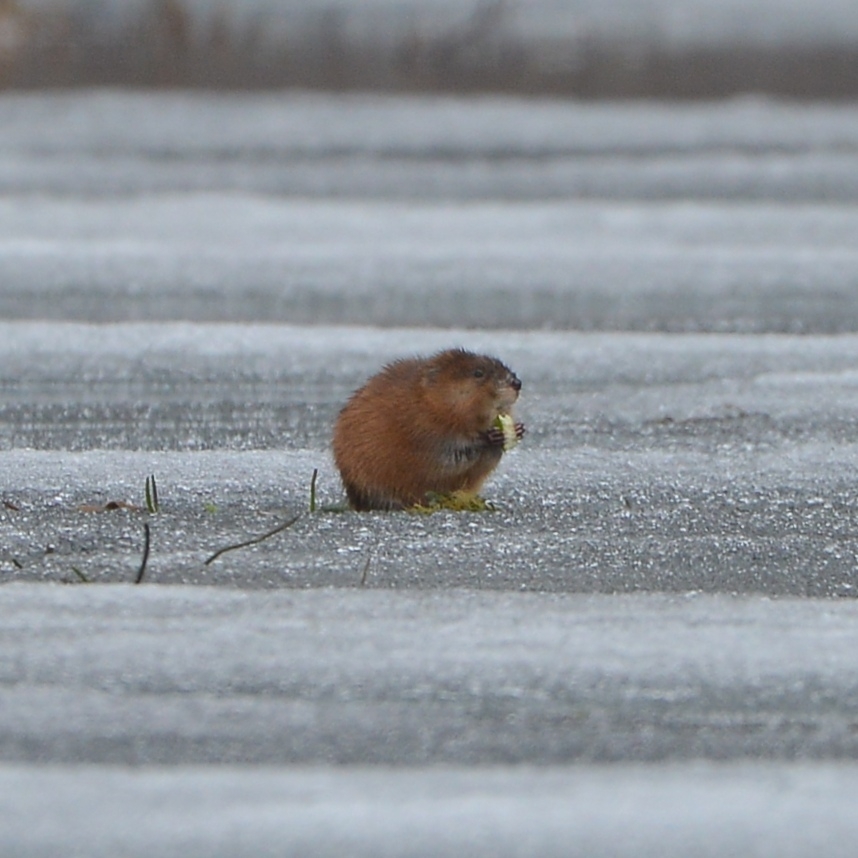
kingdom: Animalia
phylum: Chordata
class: Mammalia
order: Rodentia
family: Cricetidae
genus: Ondatra
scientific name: Ondatra zibethicus
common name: Muskrat
